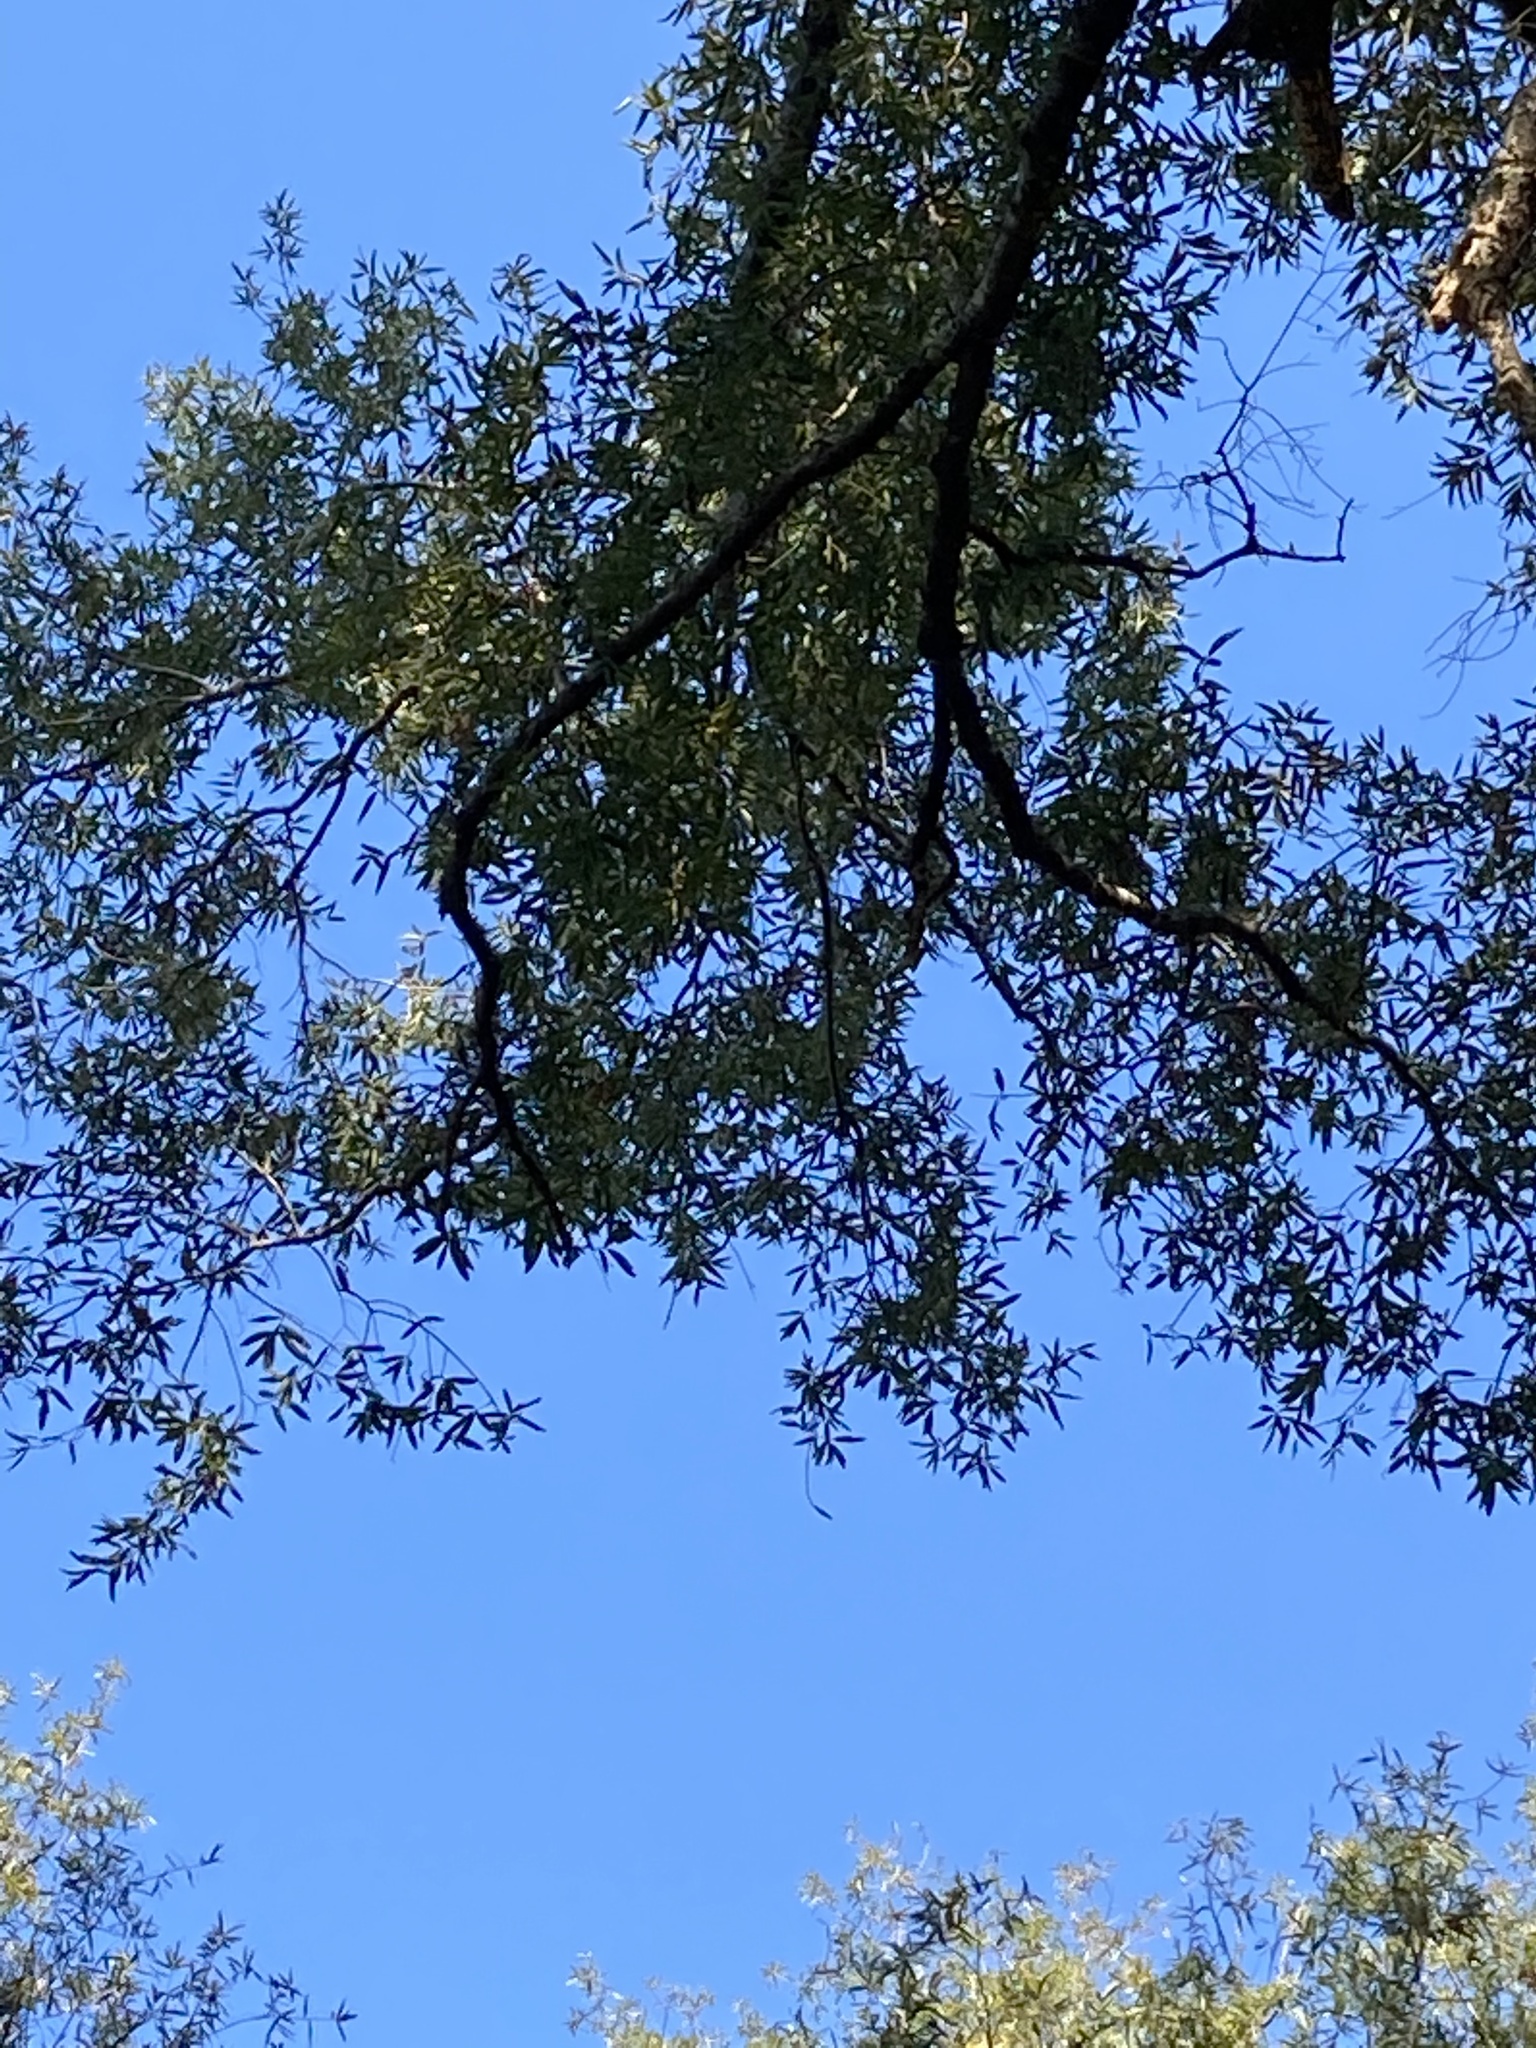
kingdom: Plantae
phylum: Tracheophyta
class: Magnoliopsida
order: Fagales
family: Fagaceae
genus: Quercus
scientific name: Quercus phellos
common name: Willow oak
